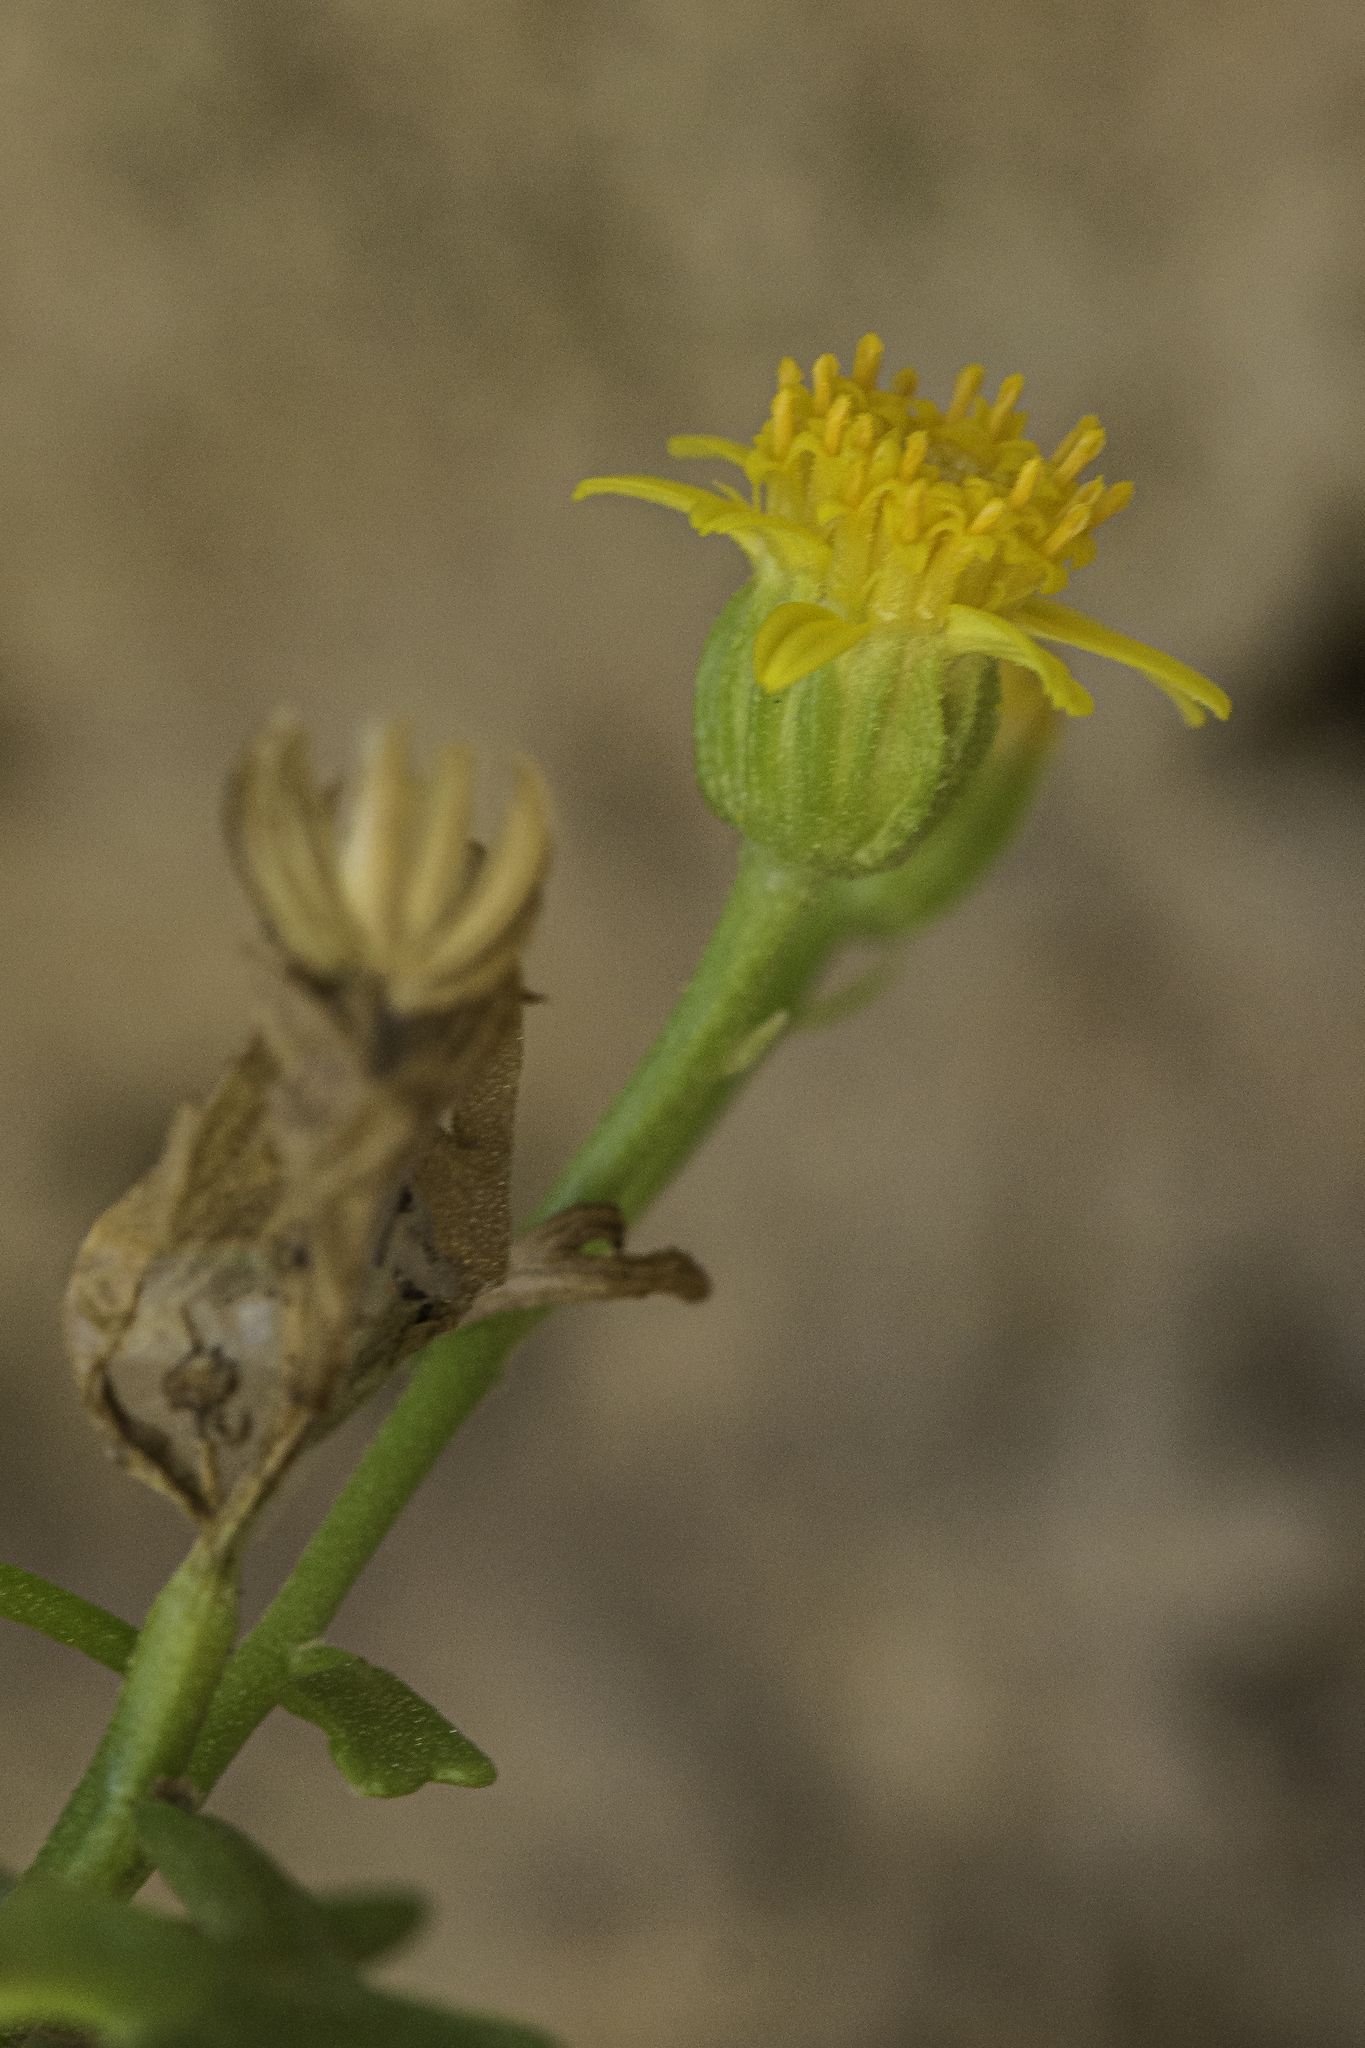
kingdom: Plantae
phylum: Tracheophyta
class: Magnoliopsida
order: Asterales
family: Asteraceae
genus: Laphamia
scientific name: Laphamia staurophylla
